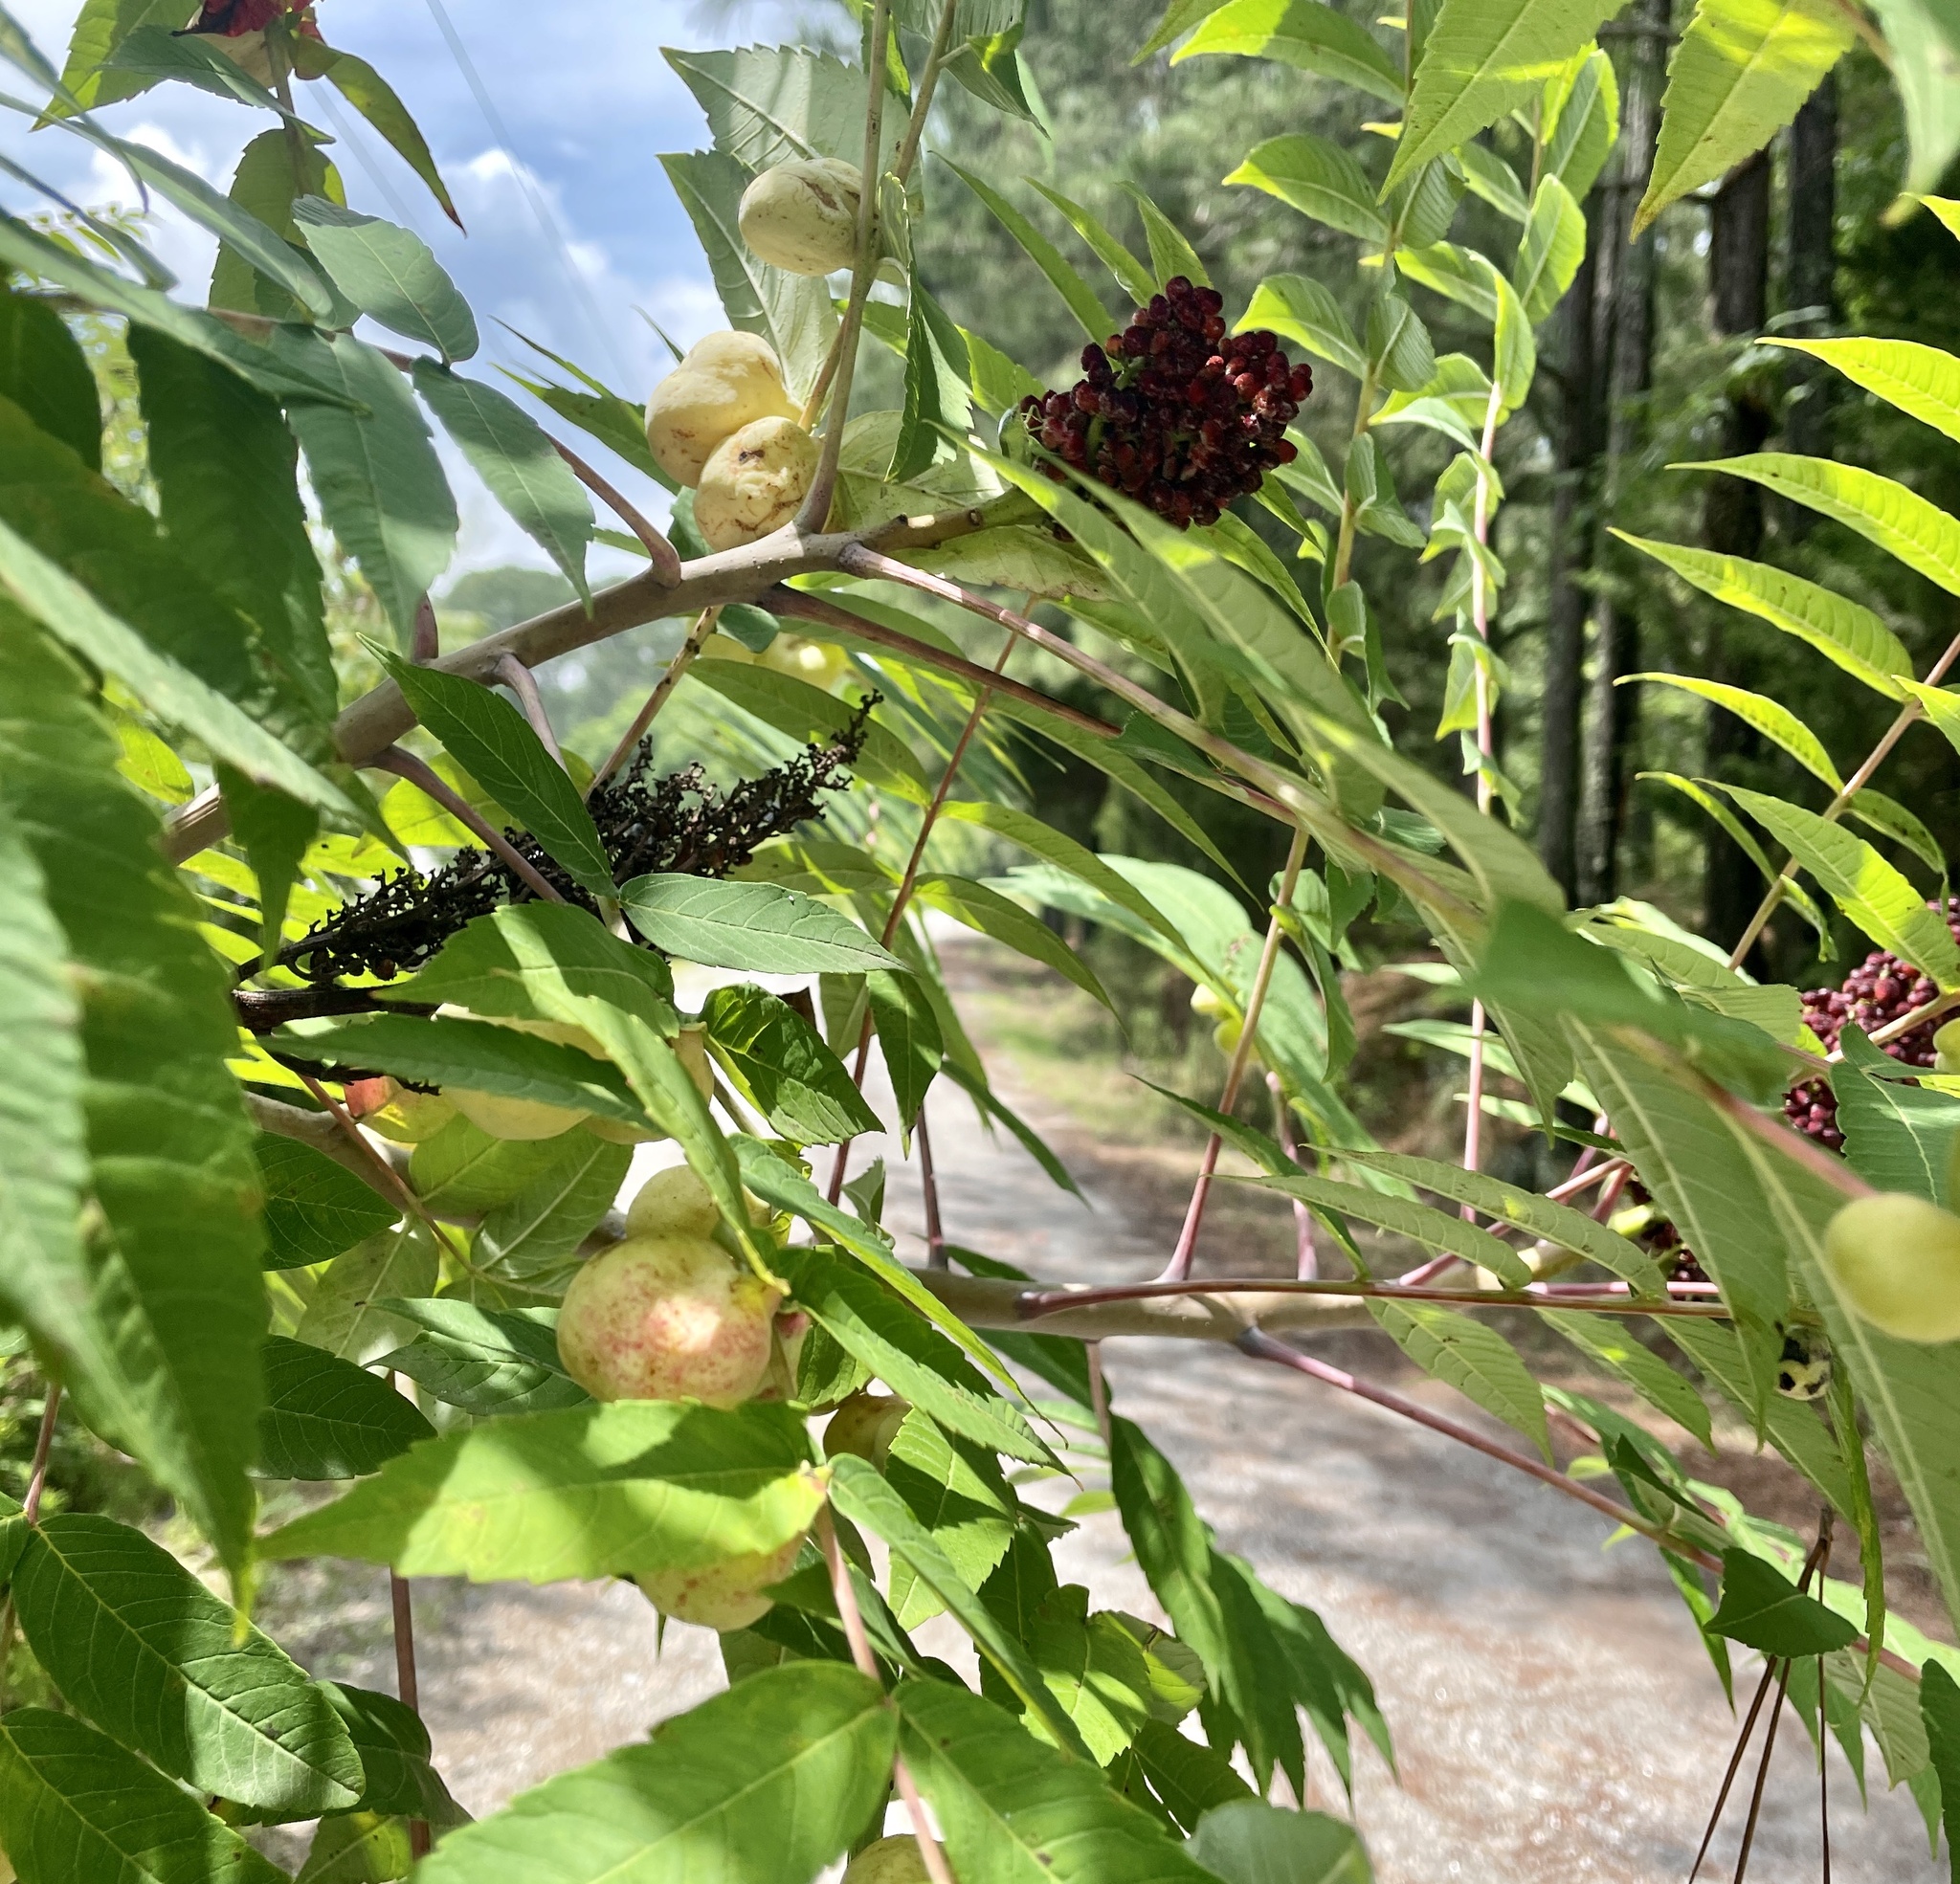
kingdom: Animalia
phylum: Arthropoda
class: Insecta
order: Hemiptera
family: Aphididae
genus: Melaphis
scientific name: Melaphis rhois
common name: Sumac gall aphid
